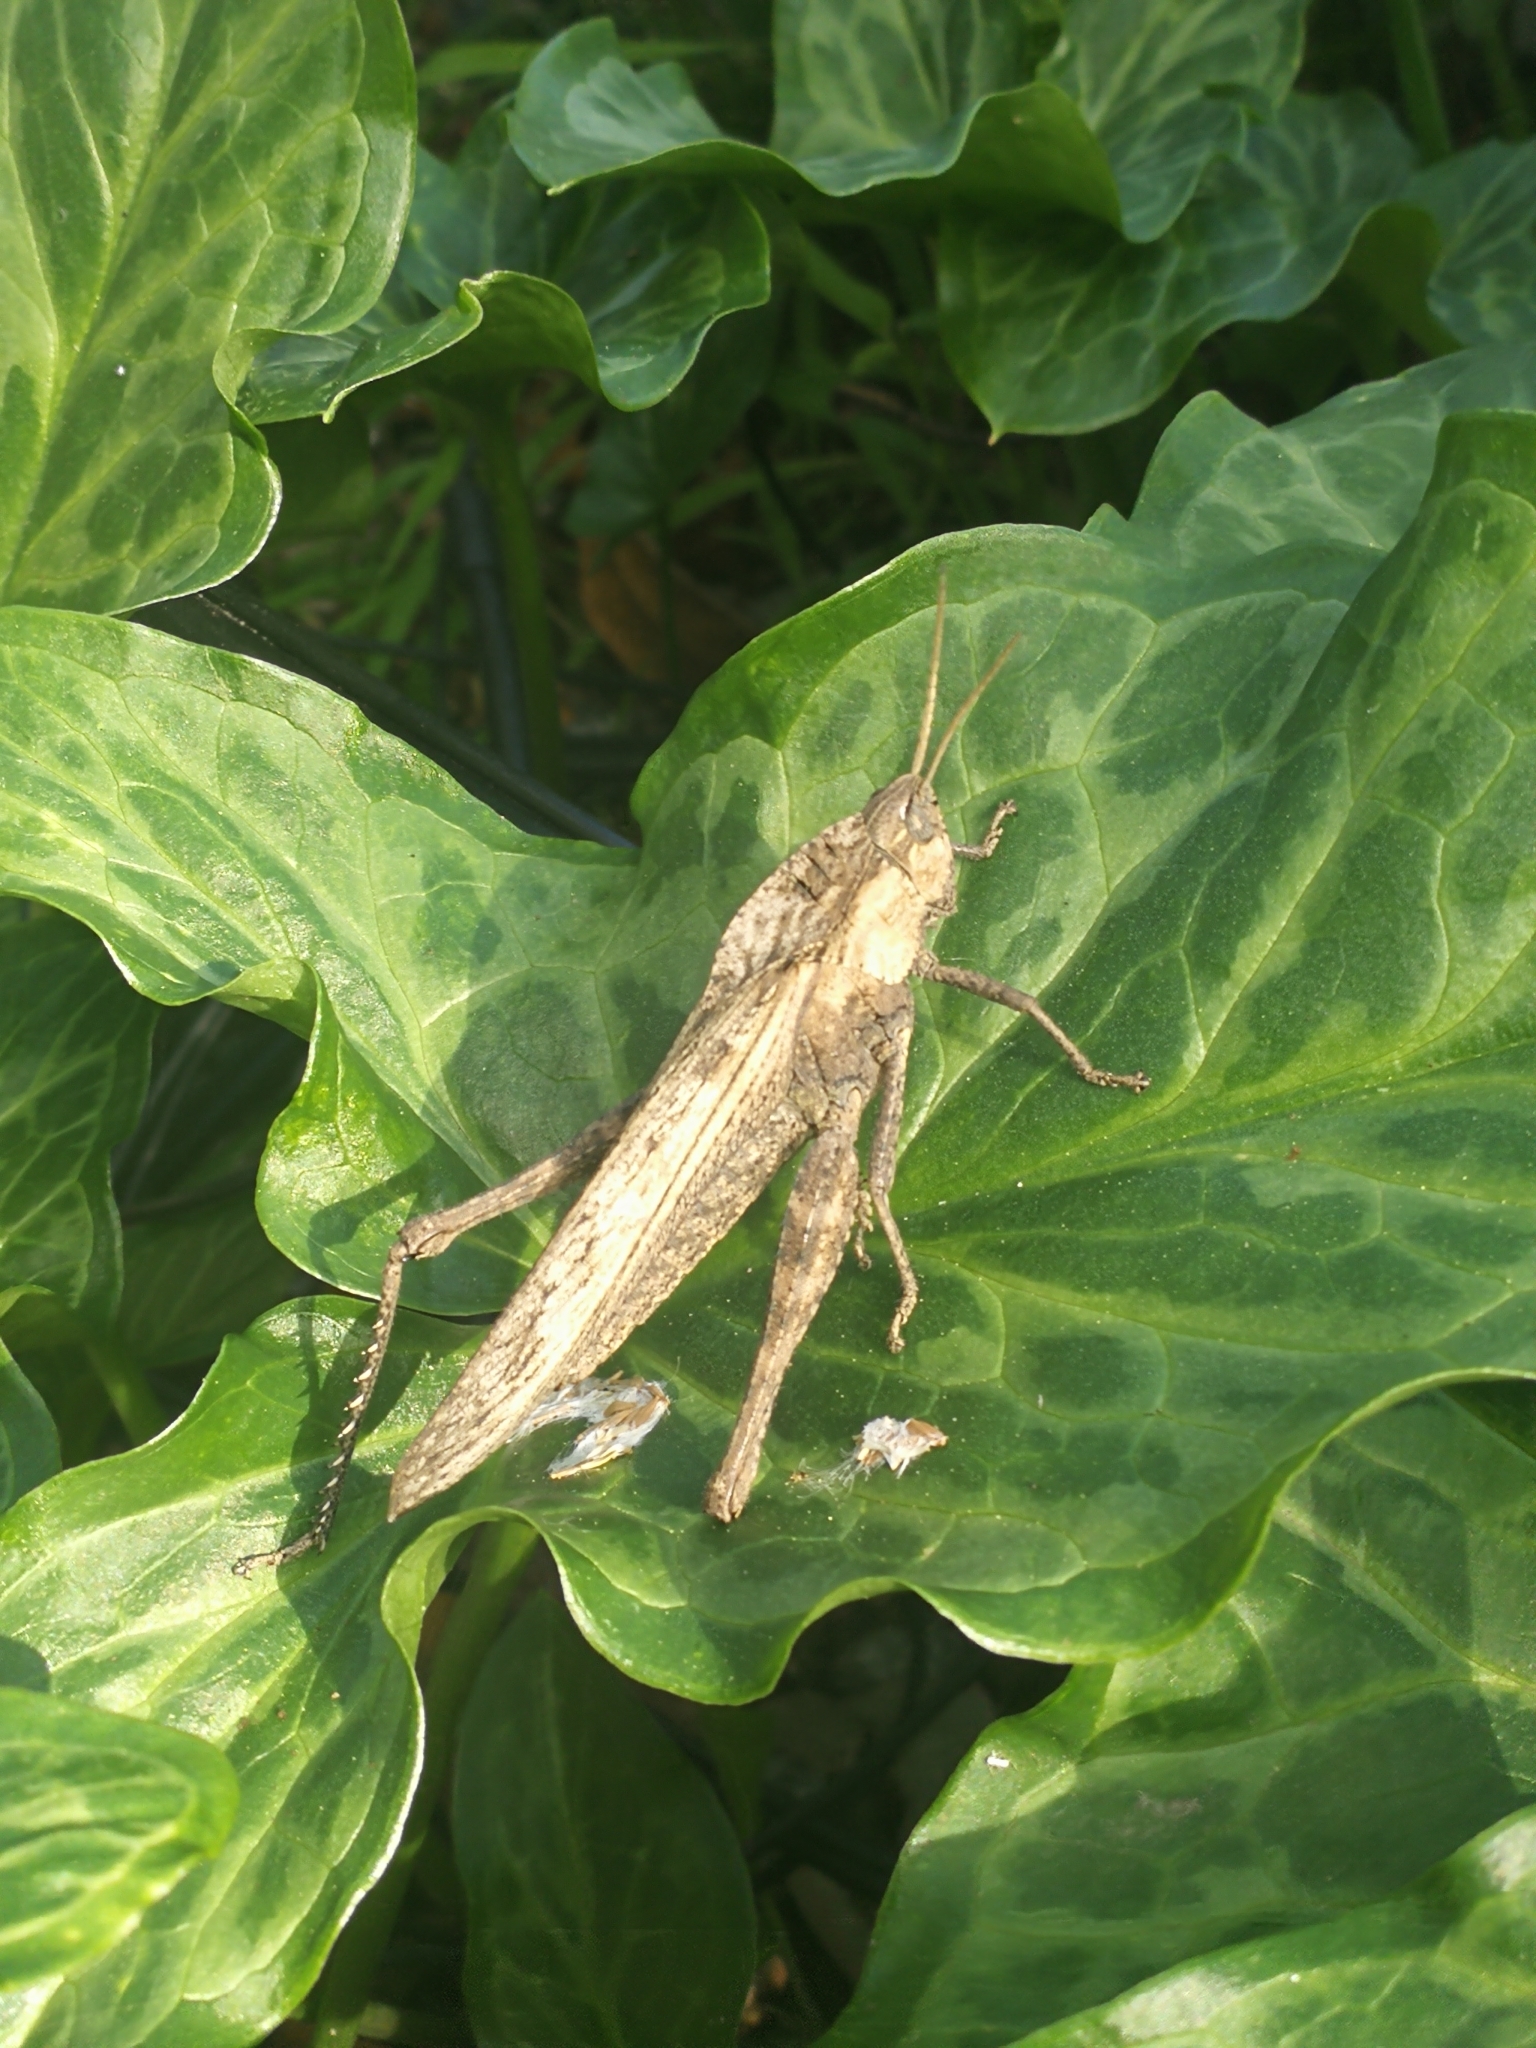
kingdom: Animalia
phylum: Arthropoda
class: Insecta
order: Orthoptera
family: Romaleidae
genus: Xyleus
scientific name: Xyleus discoideus
